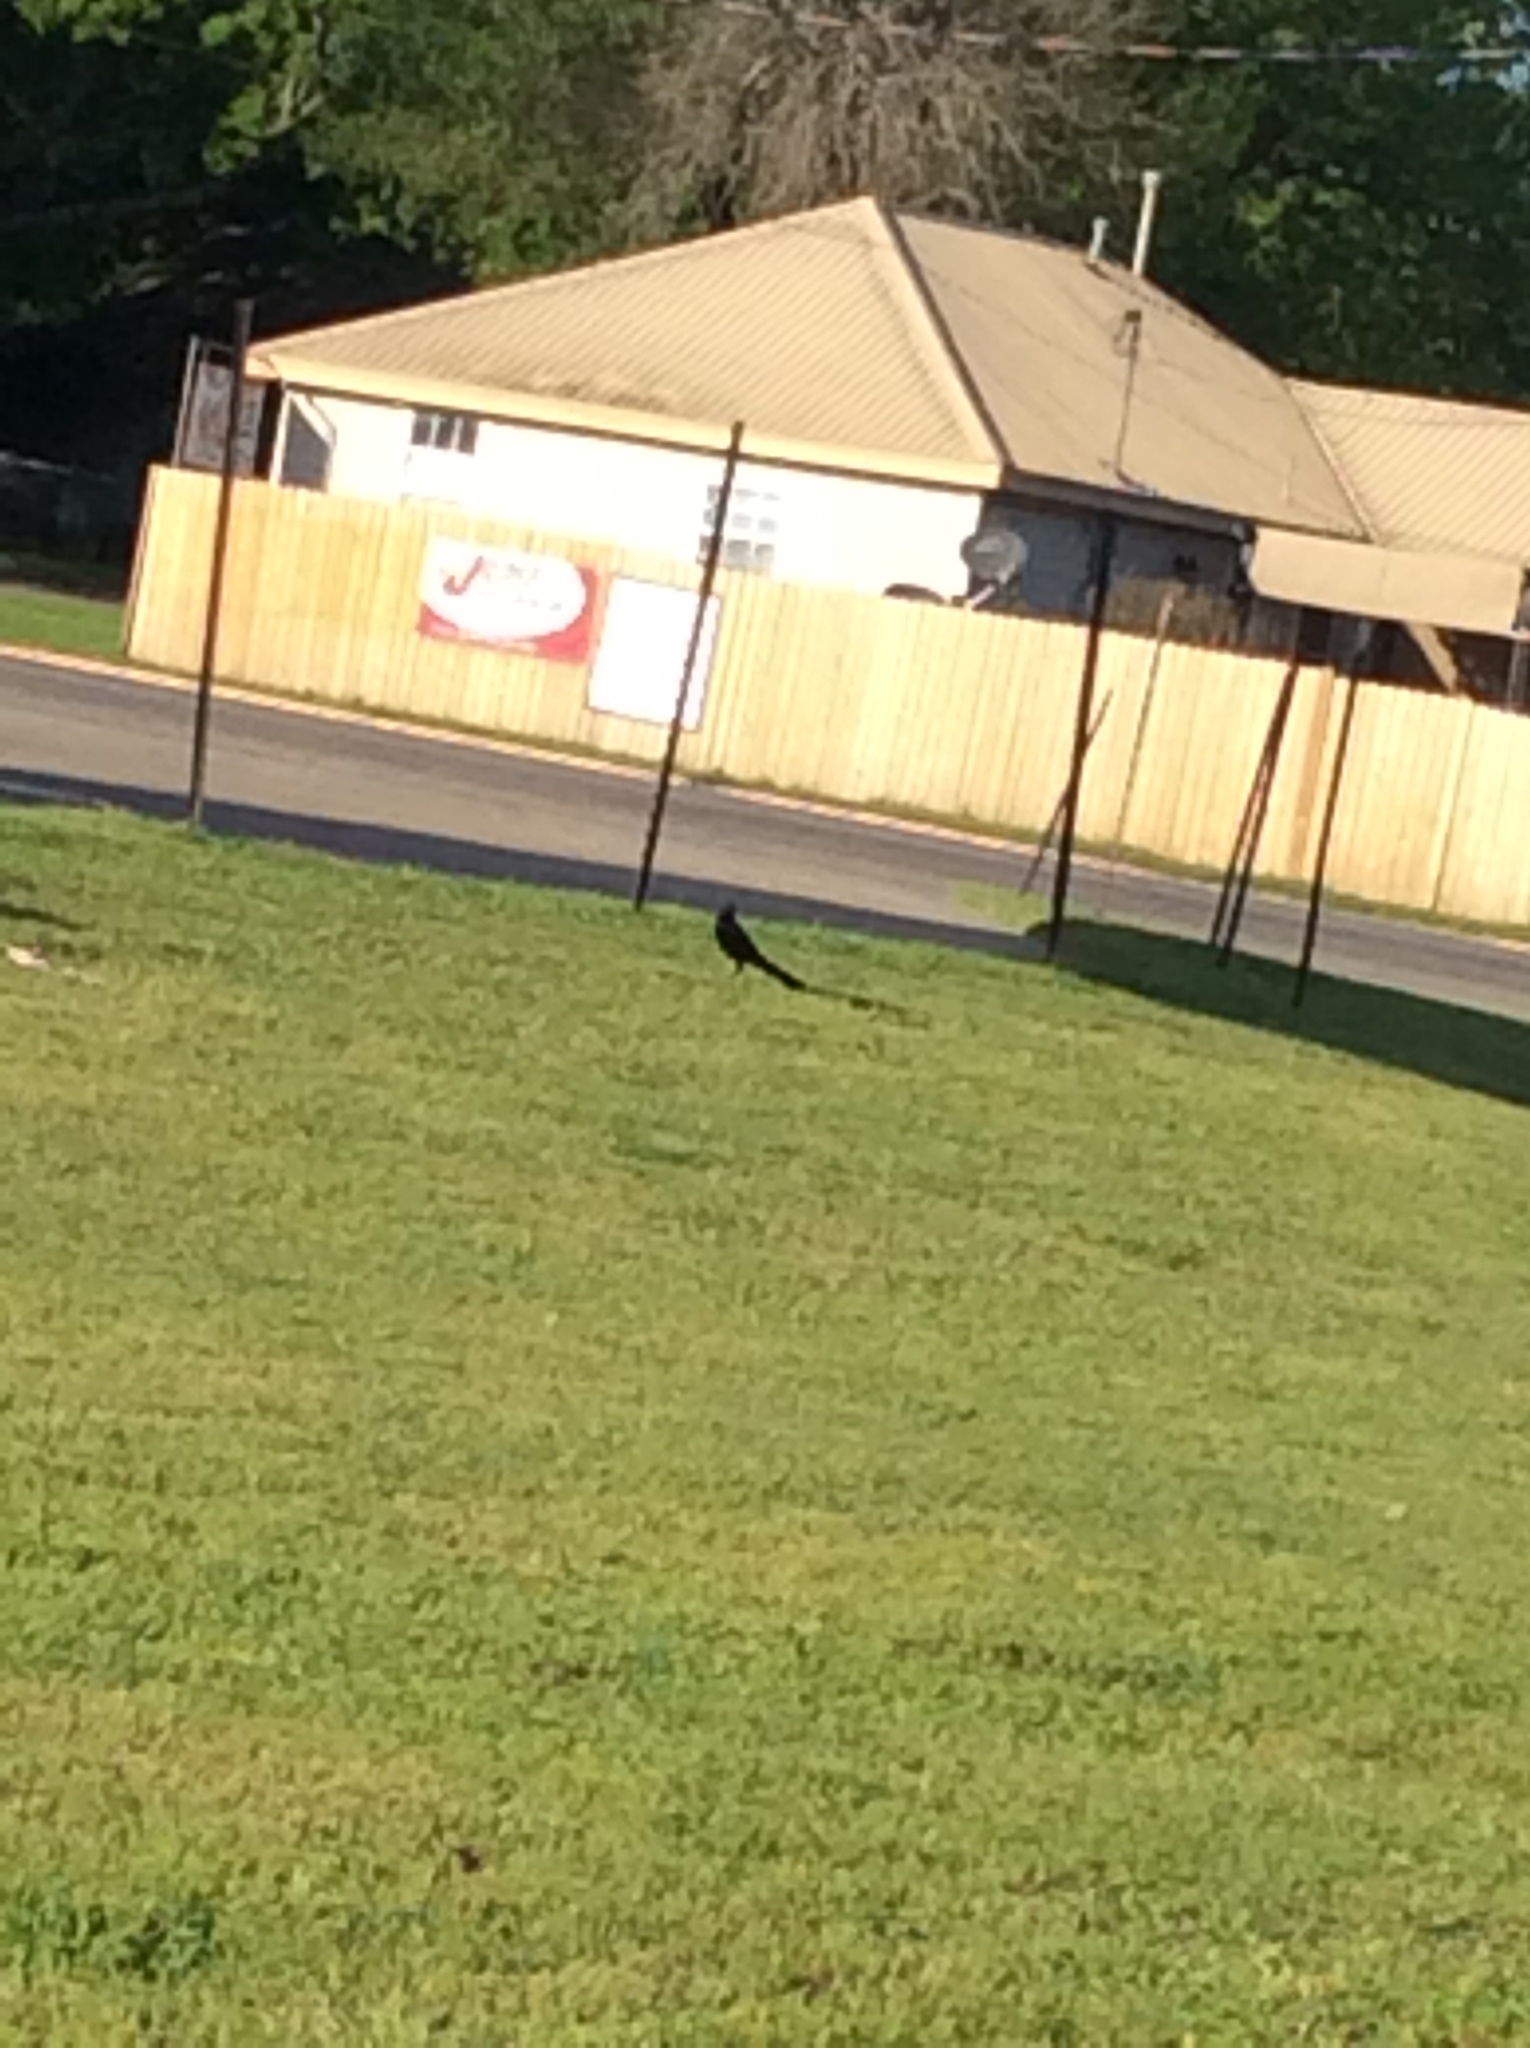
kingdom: Animalia
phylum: Chordata
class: Aves
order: Passeriformes
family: Icteridae
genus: Quiscalus
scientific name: Quiscalus mexicanus
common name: Great-tailed grackle
